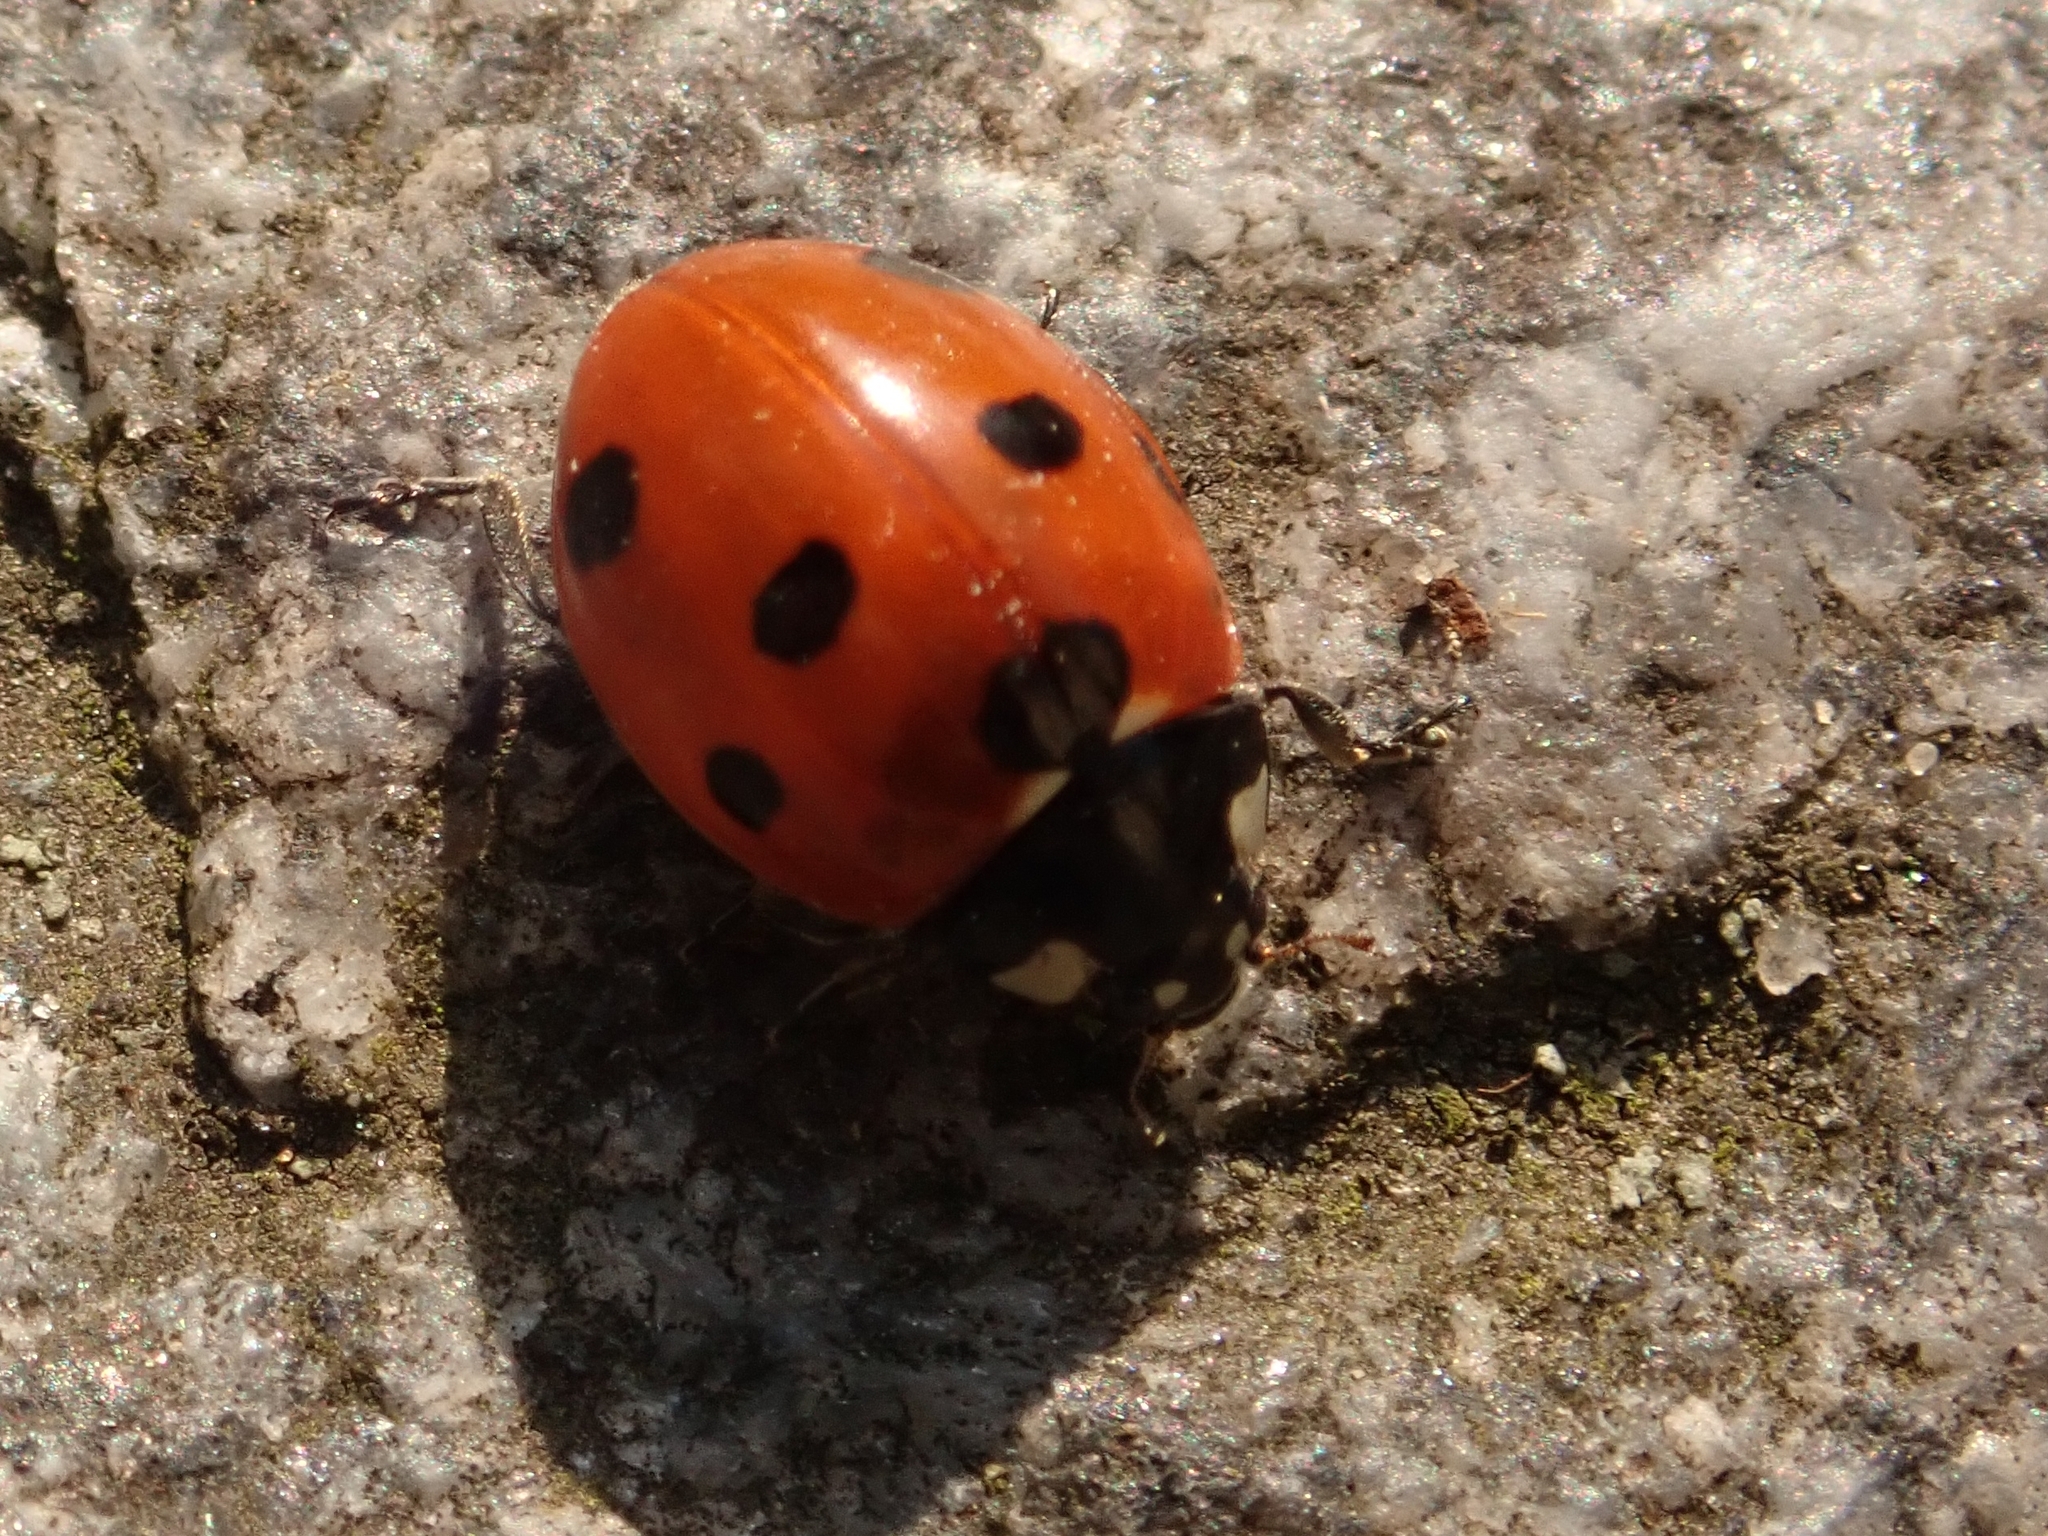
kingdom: Animalia
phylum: Arthropoda
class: Insecta
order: Coleoptera
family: Coccinellidae
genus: Coccinella
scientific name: Coccinella septempunctata
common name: Sevenspotted lady beetle
